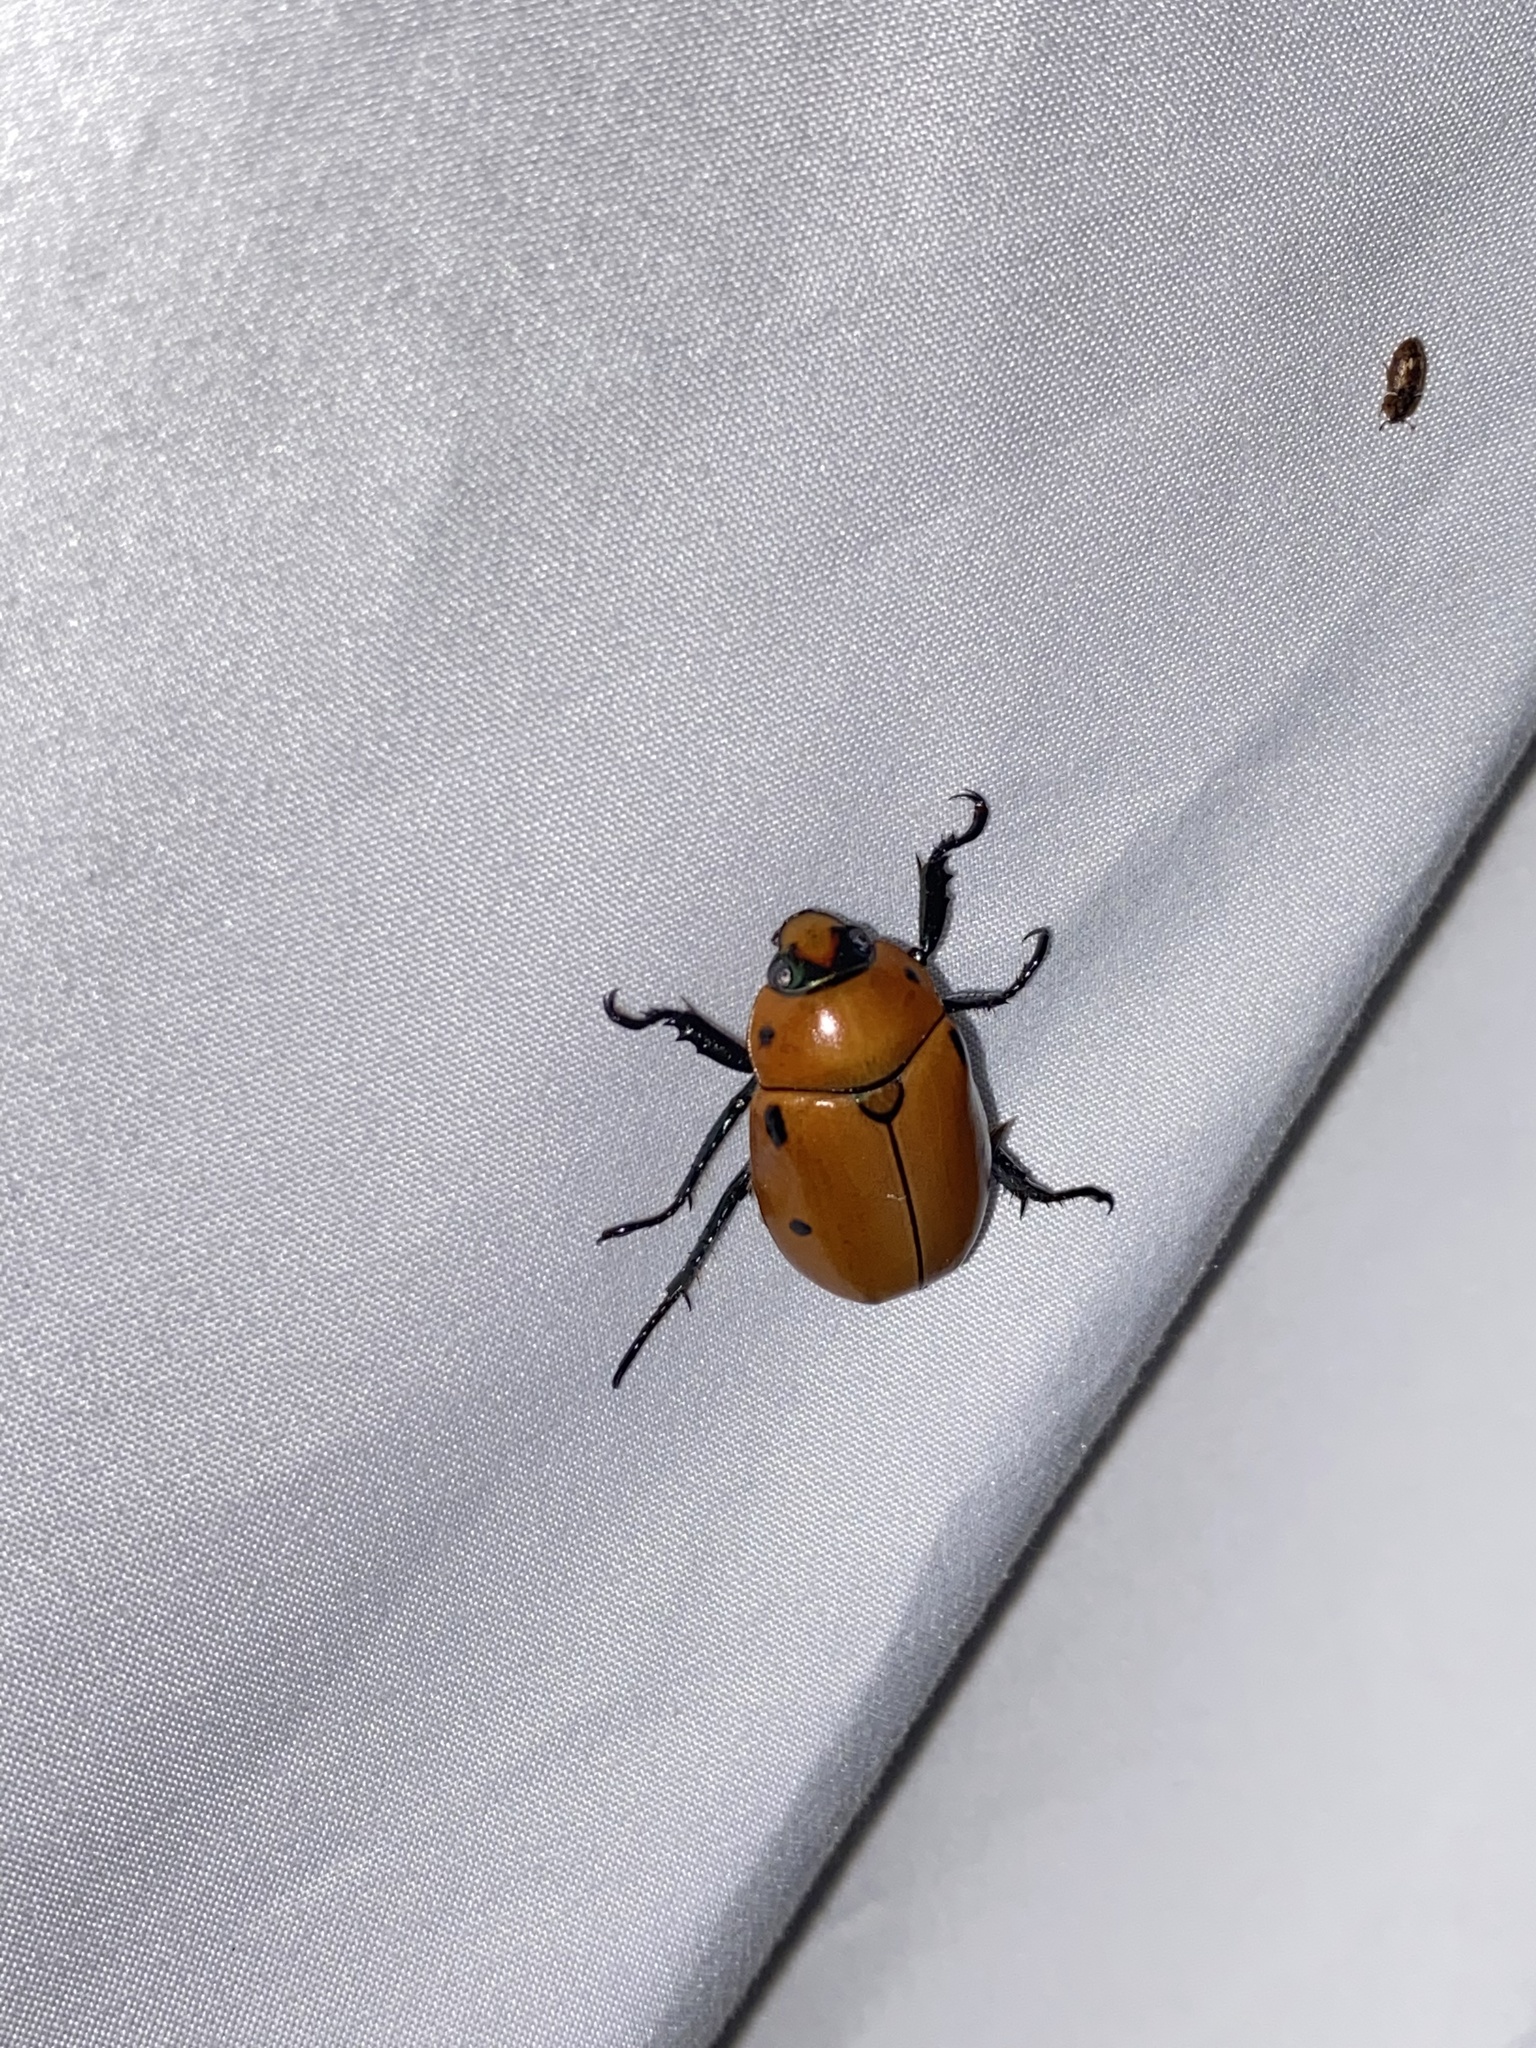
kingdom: Animalia
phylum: Arthropoda
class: Insecta
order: Coleoptera
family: Scarabaeidae
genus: Pelidnota
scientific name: Pelidnota punctata
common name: Grapevine beetle
